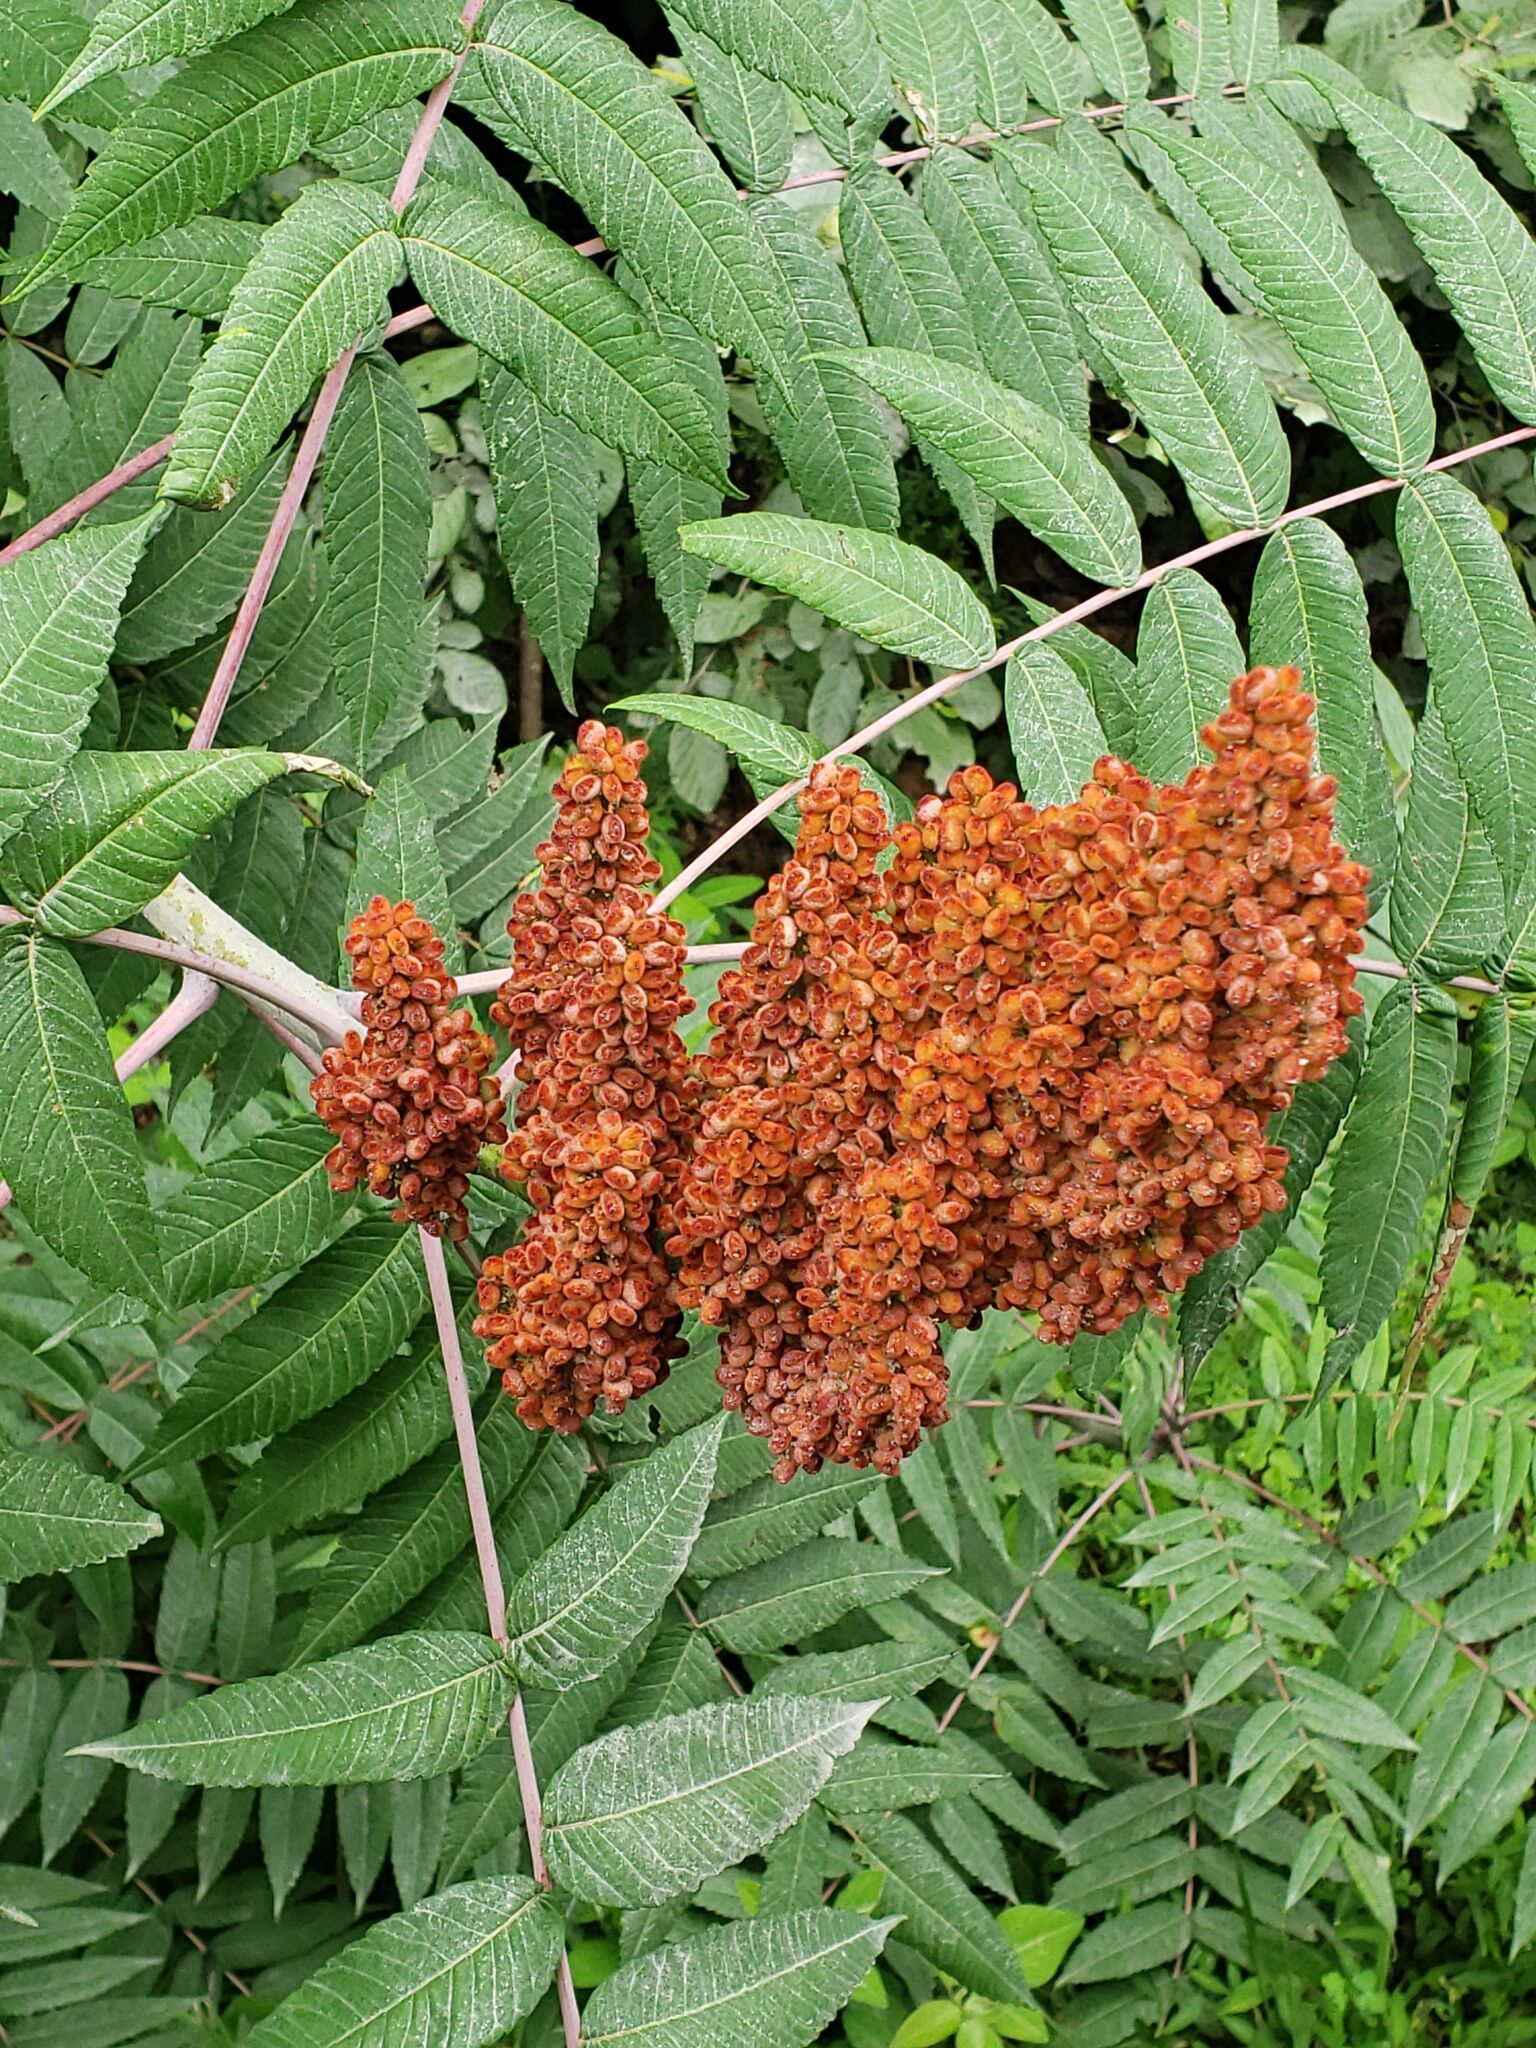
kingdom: Plantae
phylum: Tracheophyta
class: Magnoliopsida
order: Sapindales
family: Anacardiaceae
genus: Rhus
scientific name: Rhus glabra
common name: Scarlet sumac
